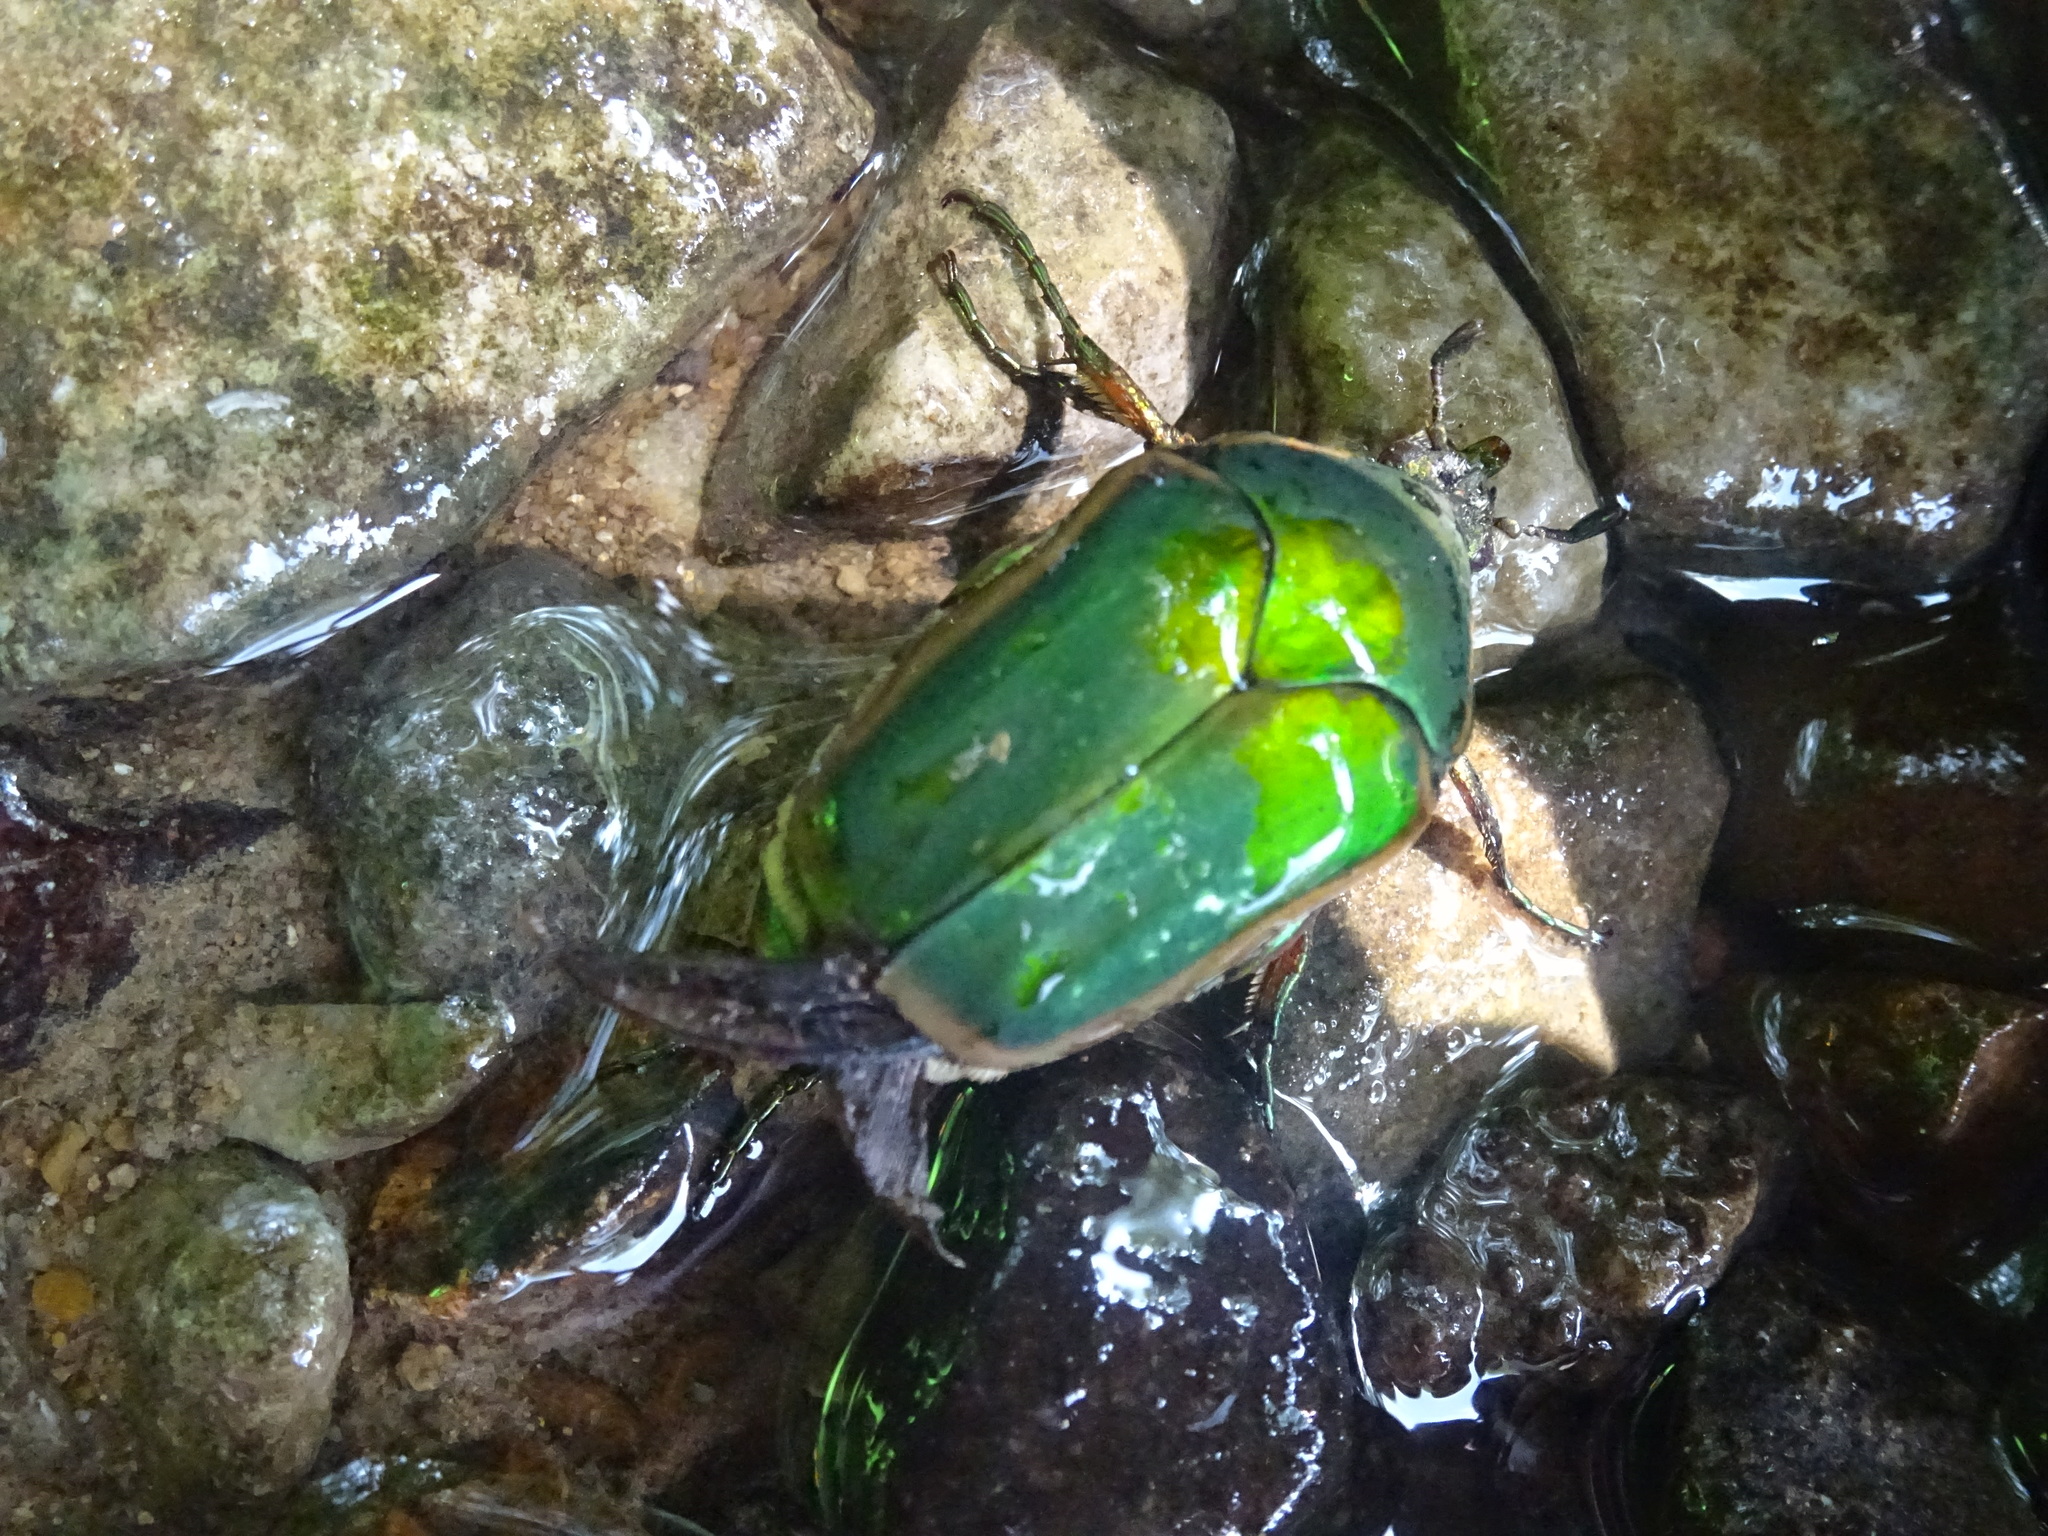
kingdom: Animalia
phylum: Arthropoda
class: Insecta
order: Coleoptera
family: Scarabaeidae
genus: Cotinis
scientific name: Cotinis nitida
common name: Common green june beetle
